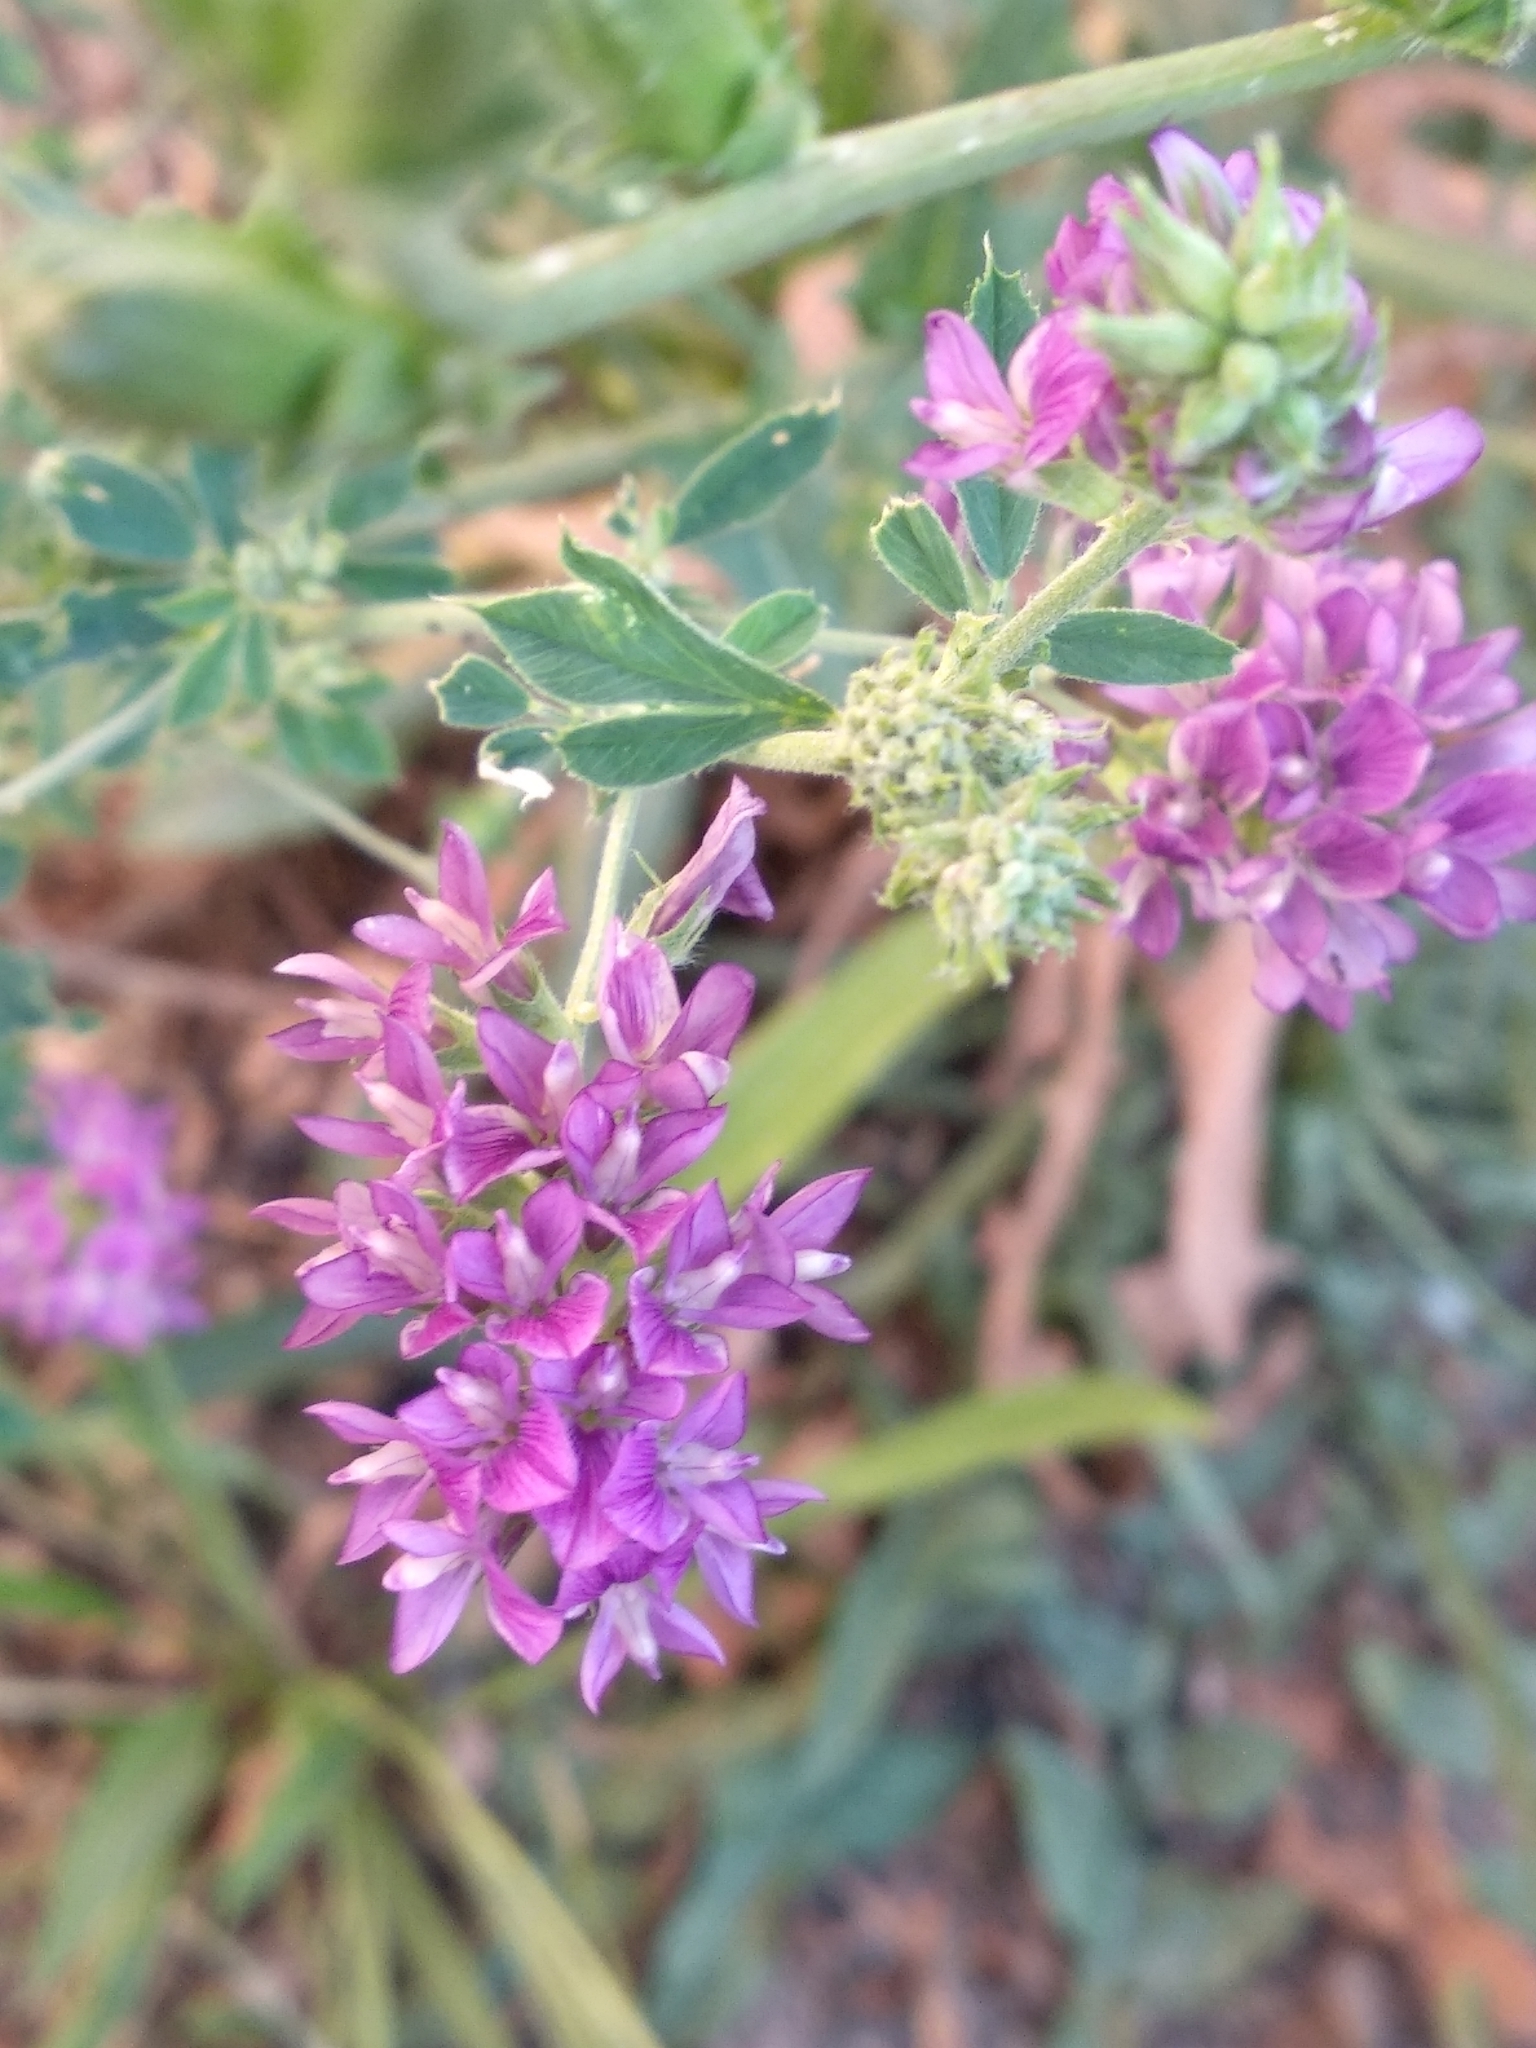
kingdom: Plantae
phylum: Tracheophyta
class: Magnoliopsida
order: Fabales
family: Fabaceae
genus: Medicago
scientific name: Medicago sativa
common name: Alfalfa
